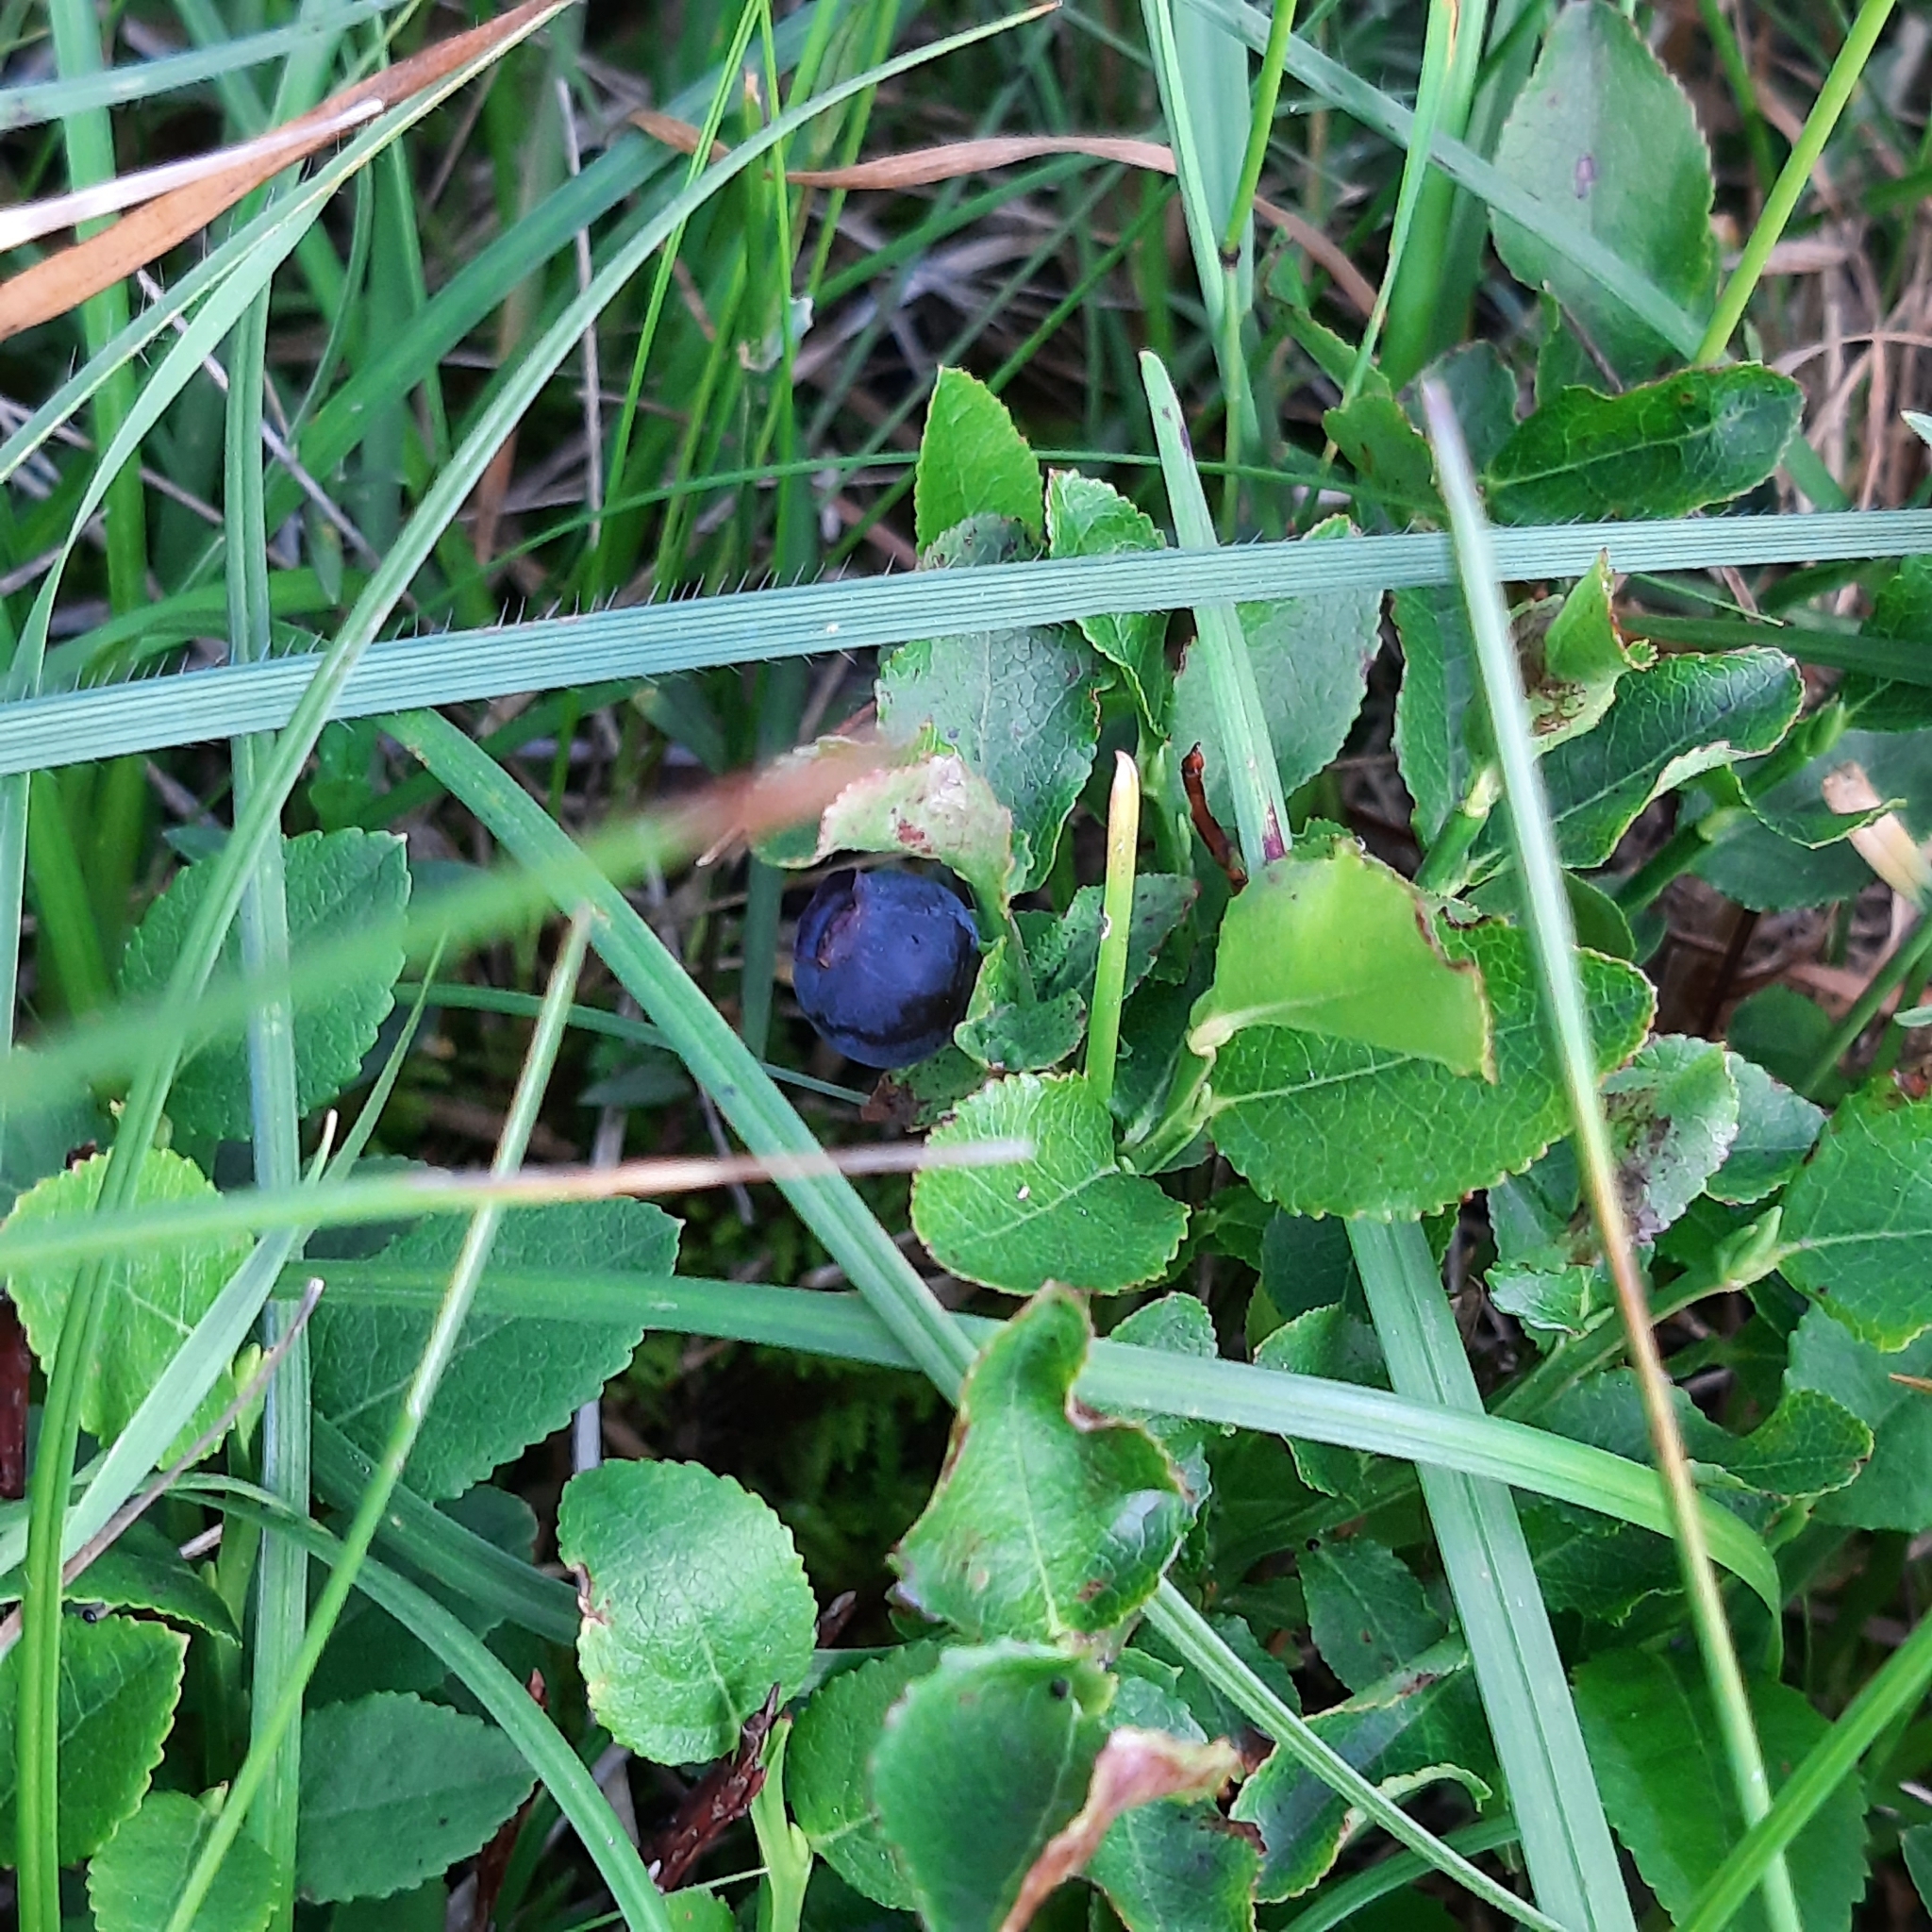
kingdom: Plantae
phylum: Tracheophyta
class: Magnoliopsida
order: Ericales
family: Ericaceae
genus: Vaccinium
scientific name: Vaccinium myrtillus
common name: Bilberry
